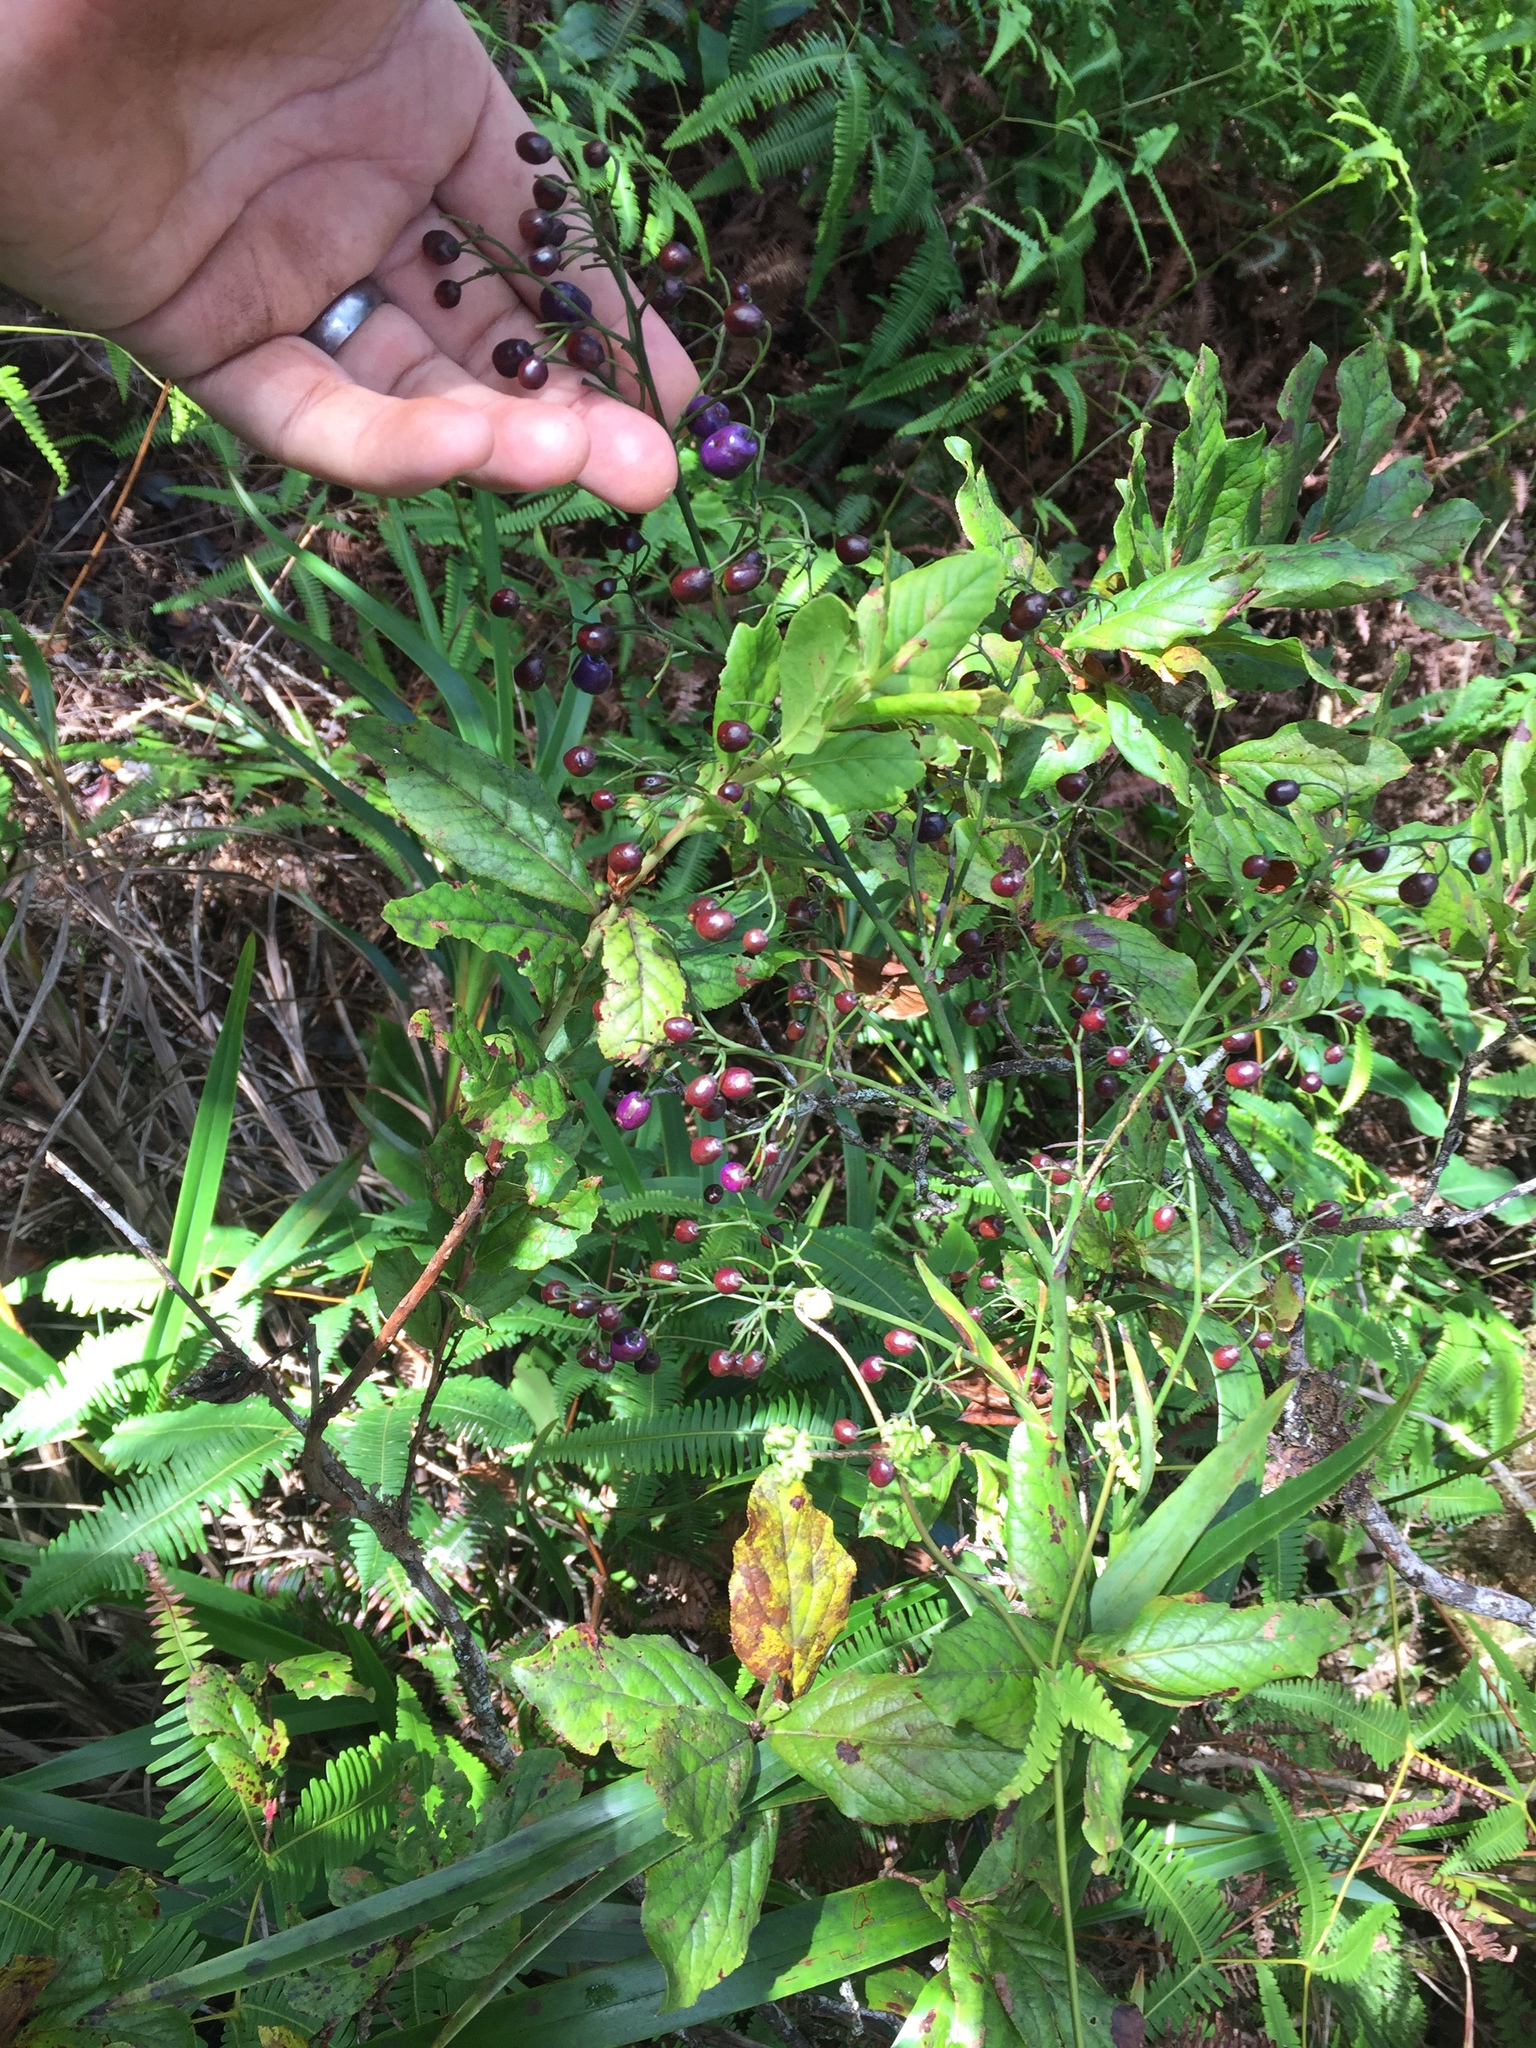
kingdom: Plantae
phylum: Tracheophyta
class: Liliopsida
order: Asparagales
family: Asphodelaceae
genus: Dianella
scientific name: Dianella sandwicensis
